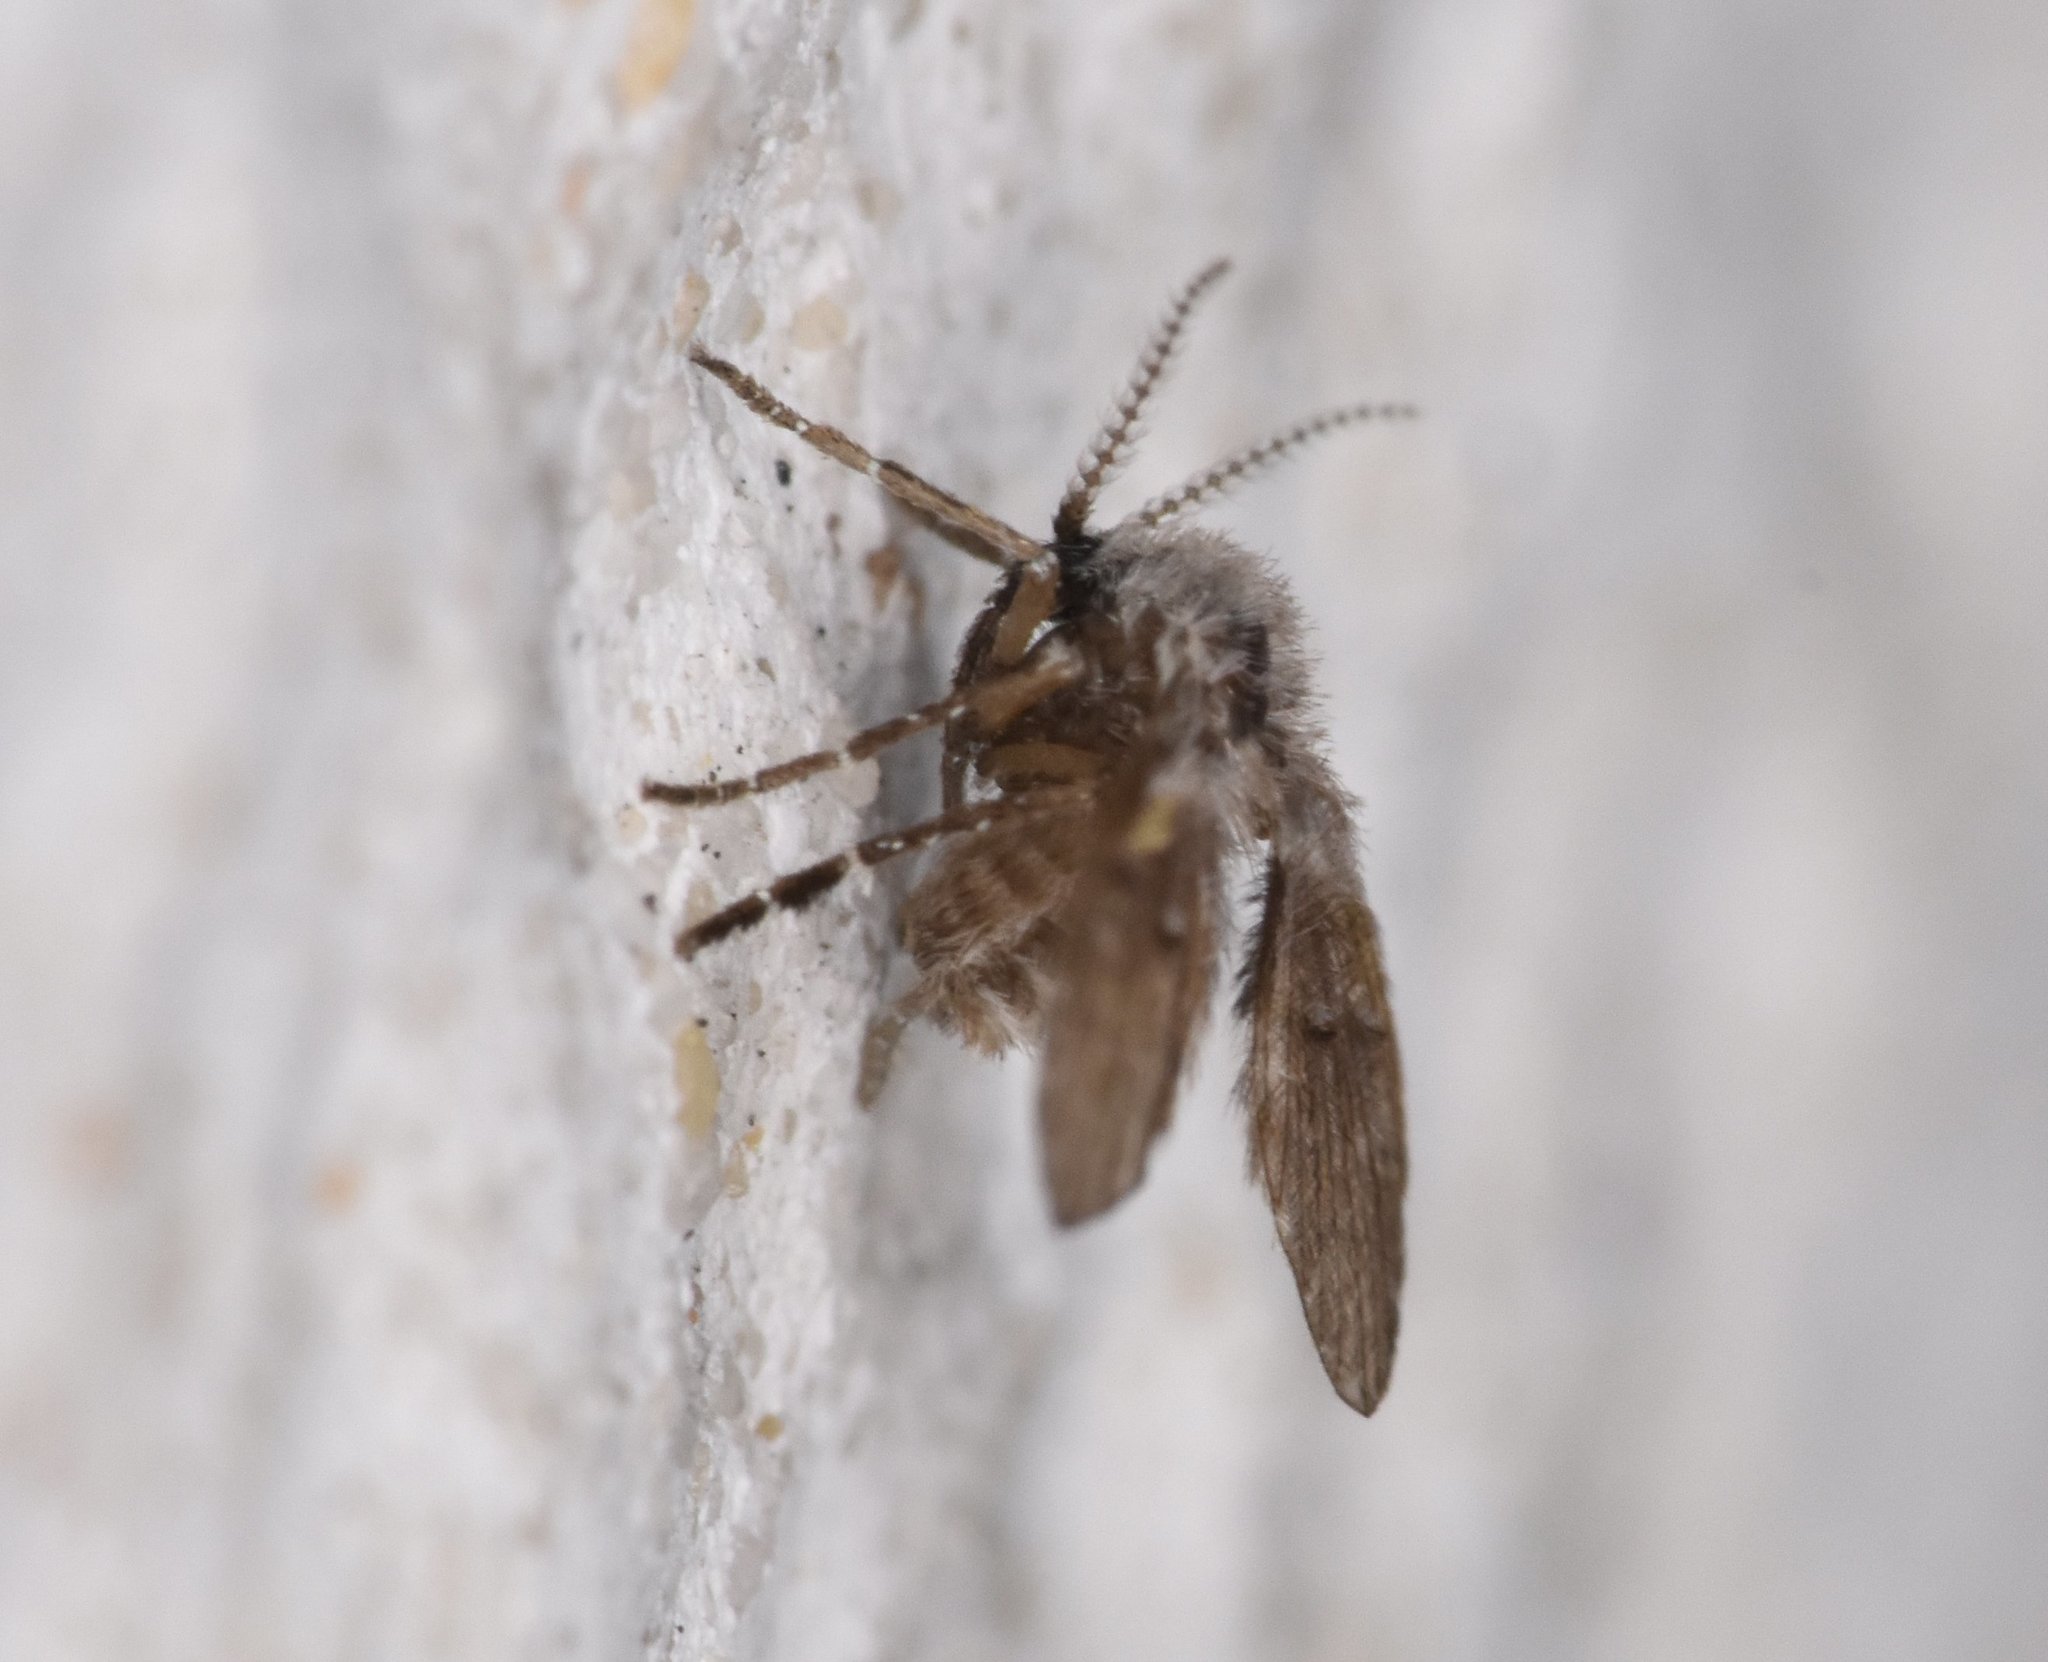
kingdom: Animalia
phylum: Arthropoda
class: Insecta
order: Diptera
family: Psychodidae
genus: Clogmia
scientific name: Clogmia albipunctatus
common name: White-spotted moth fly
